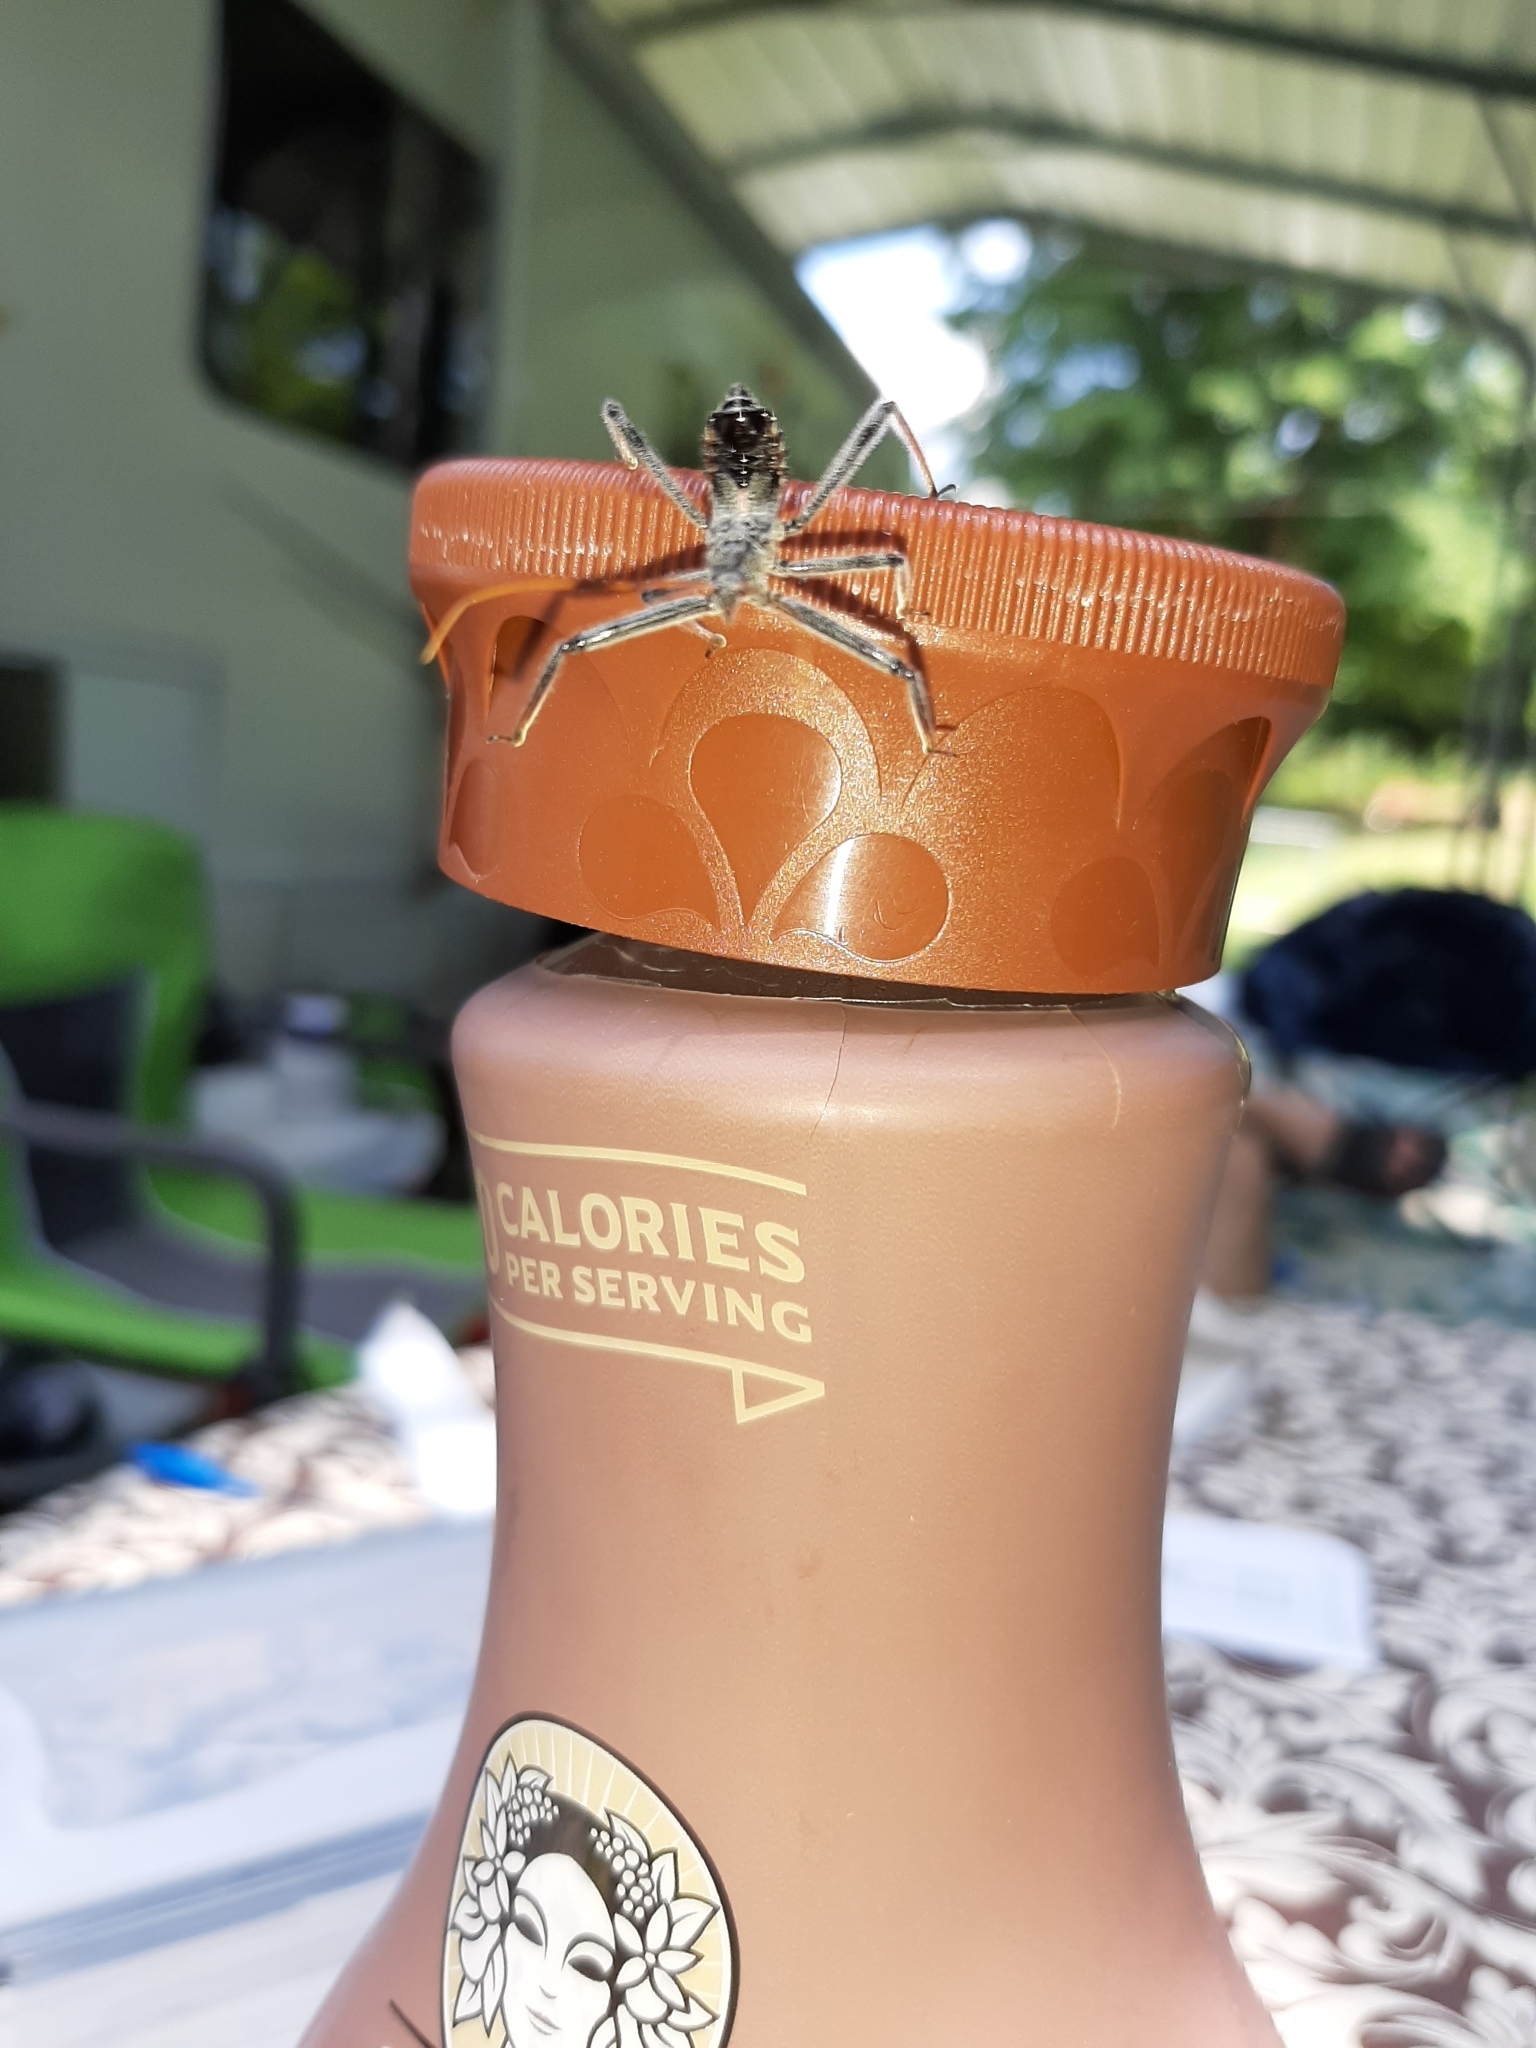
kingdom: Animalia
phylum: Arthropoda
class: Insecta
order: Hemiptera
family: Reduviidae
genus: Arilus
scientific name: Arilus cristatus
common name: North american wheel bug
